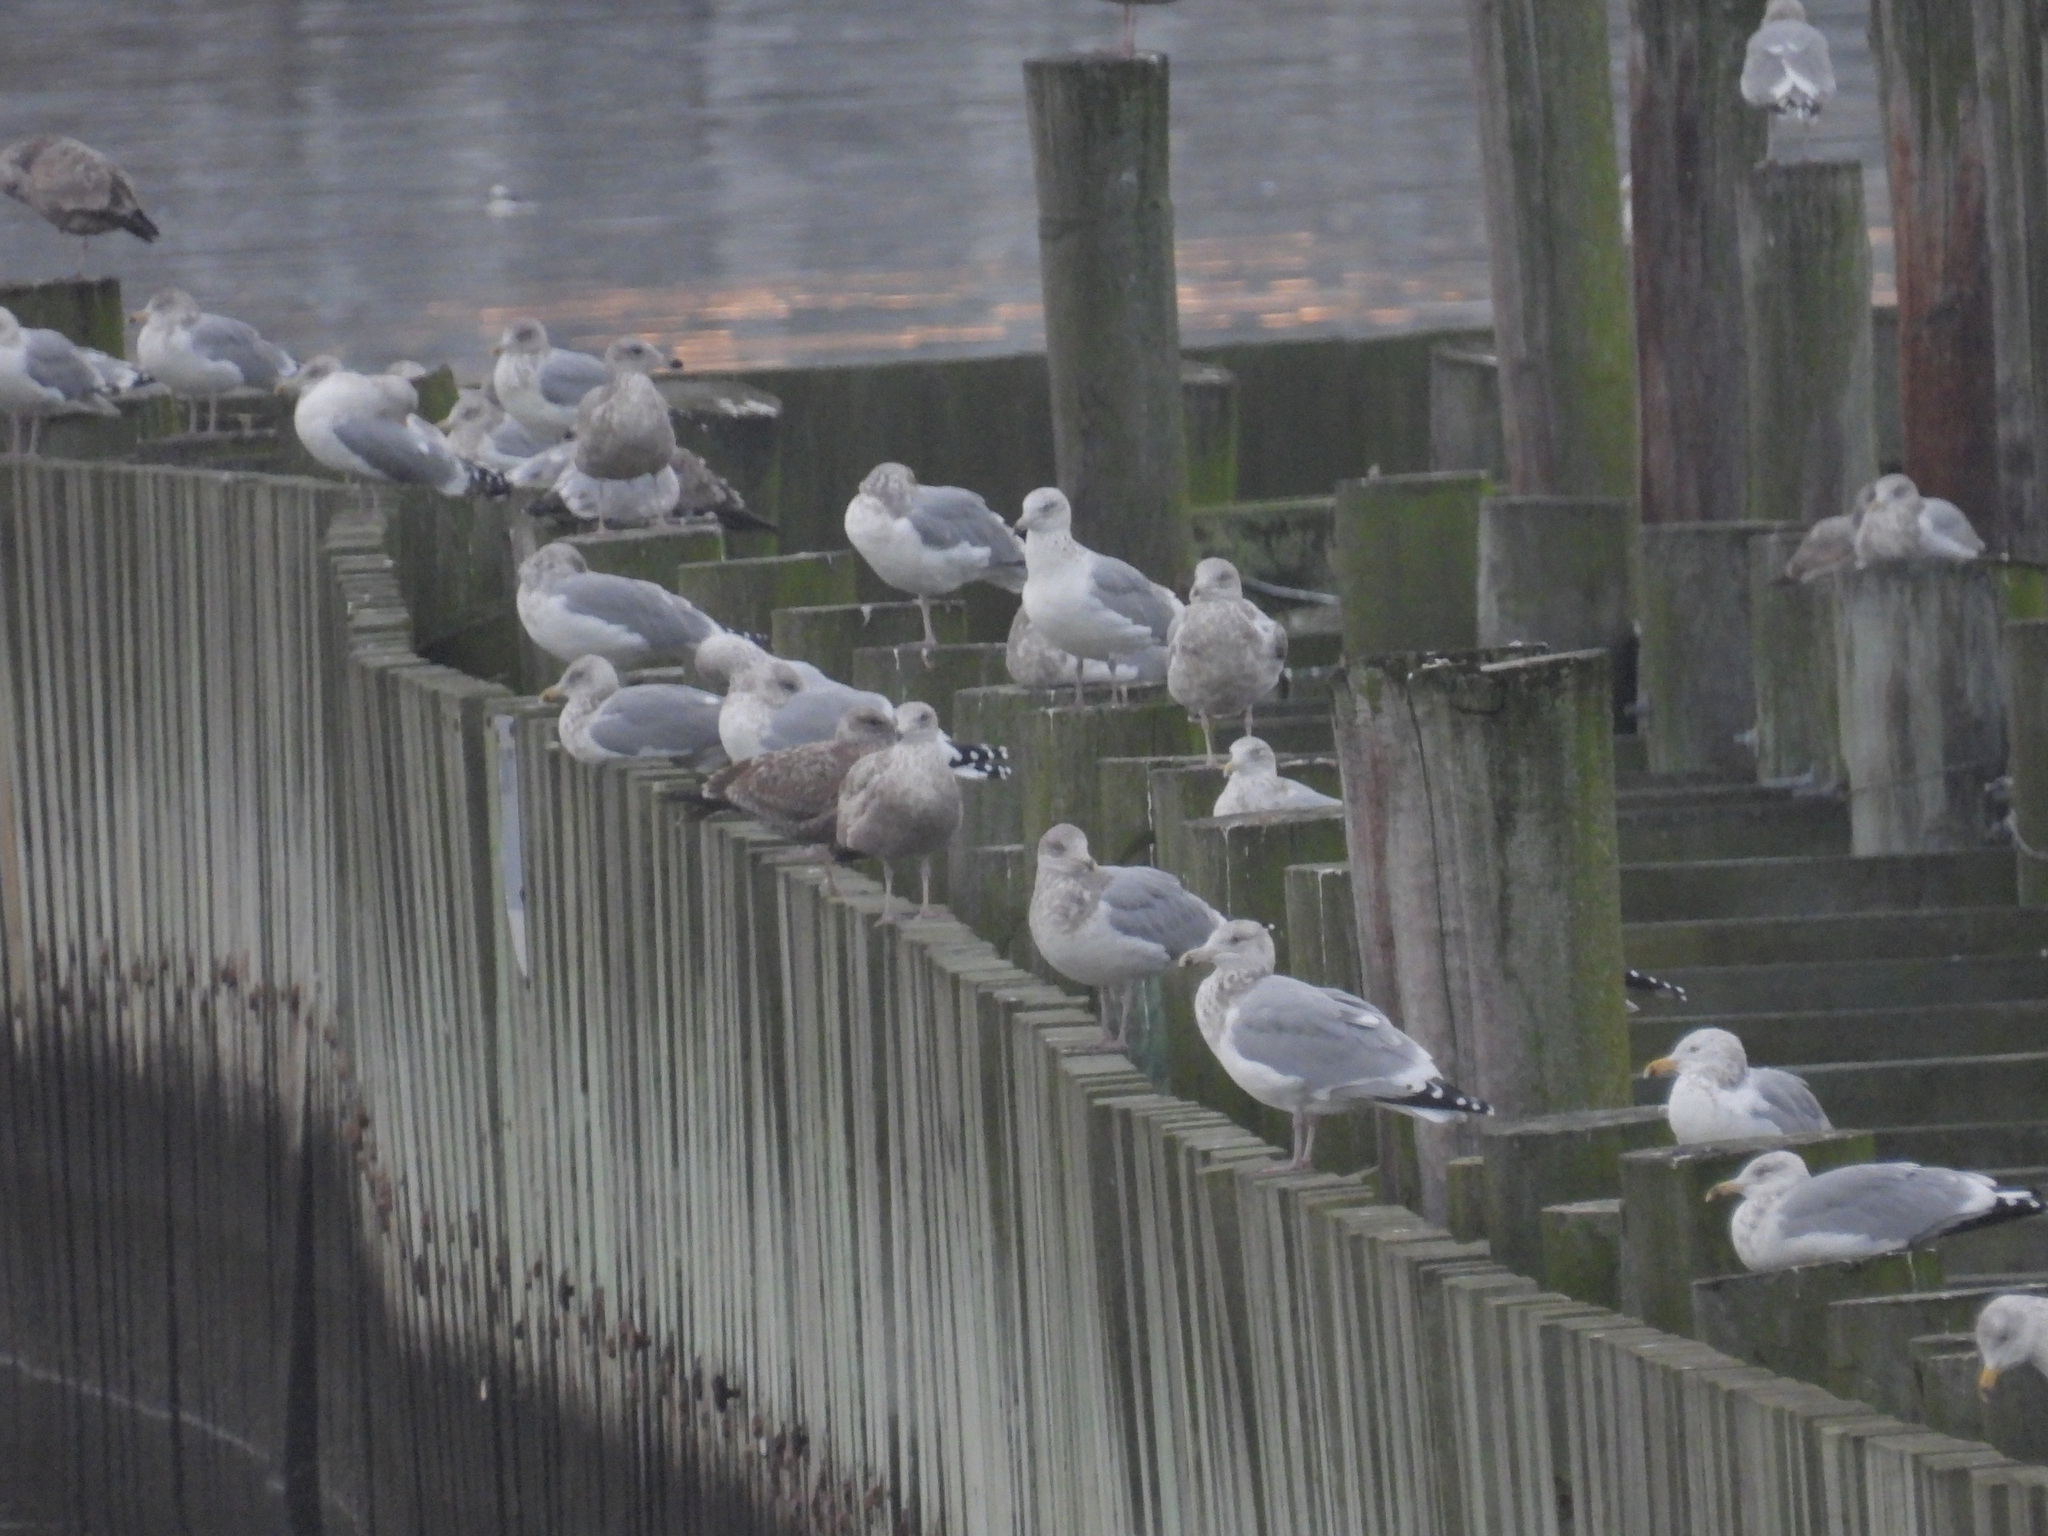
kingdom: Animalia
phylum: Chordata
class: Aves
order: Charadriiformes
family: Laridae
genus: Larus
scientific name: Larus argentatus
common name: Herring gull
